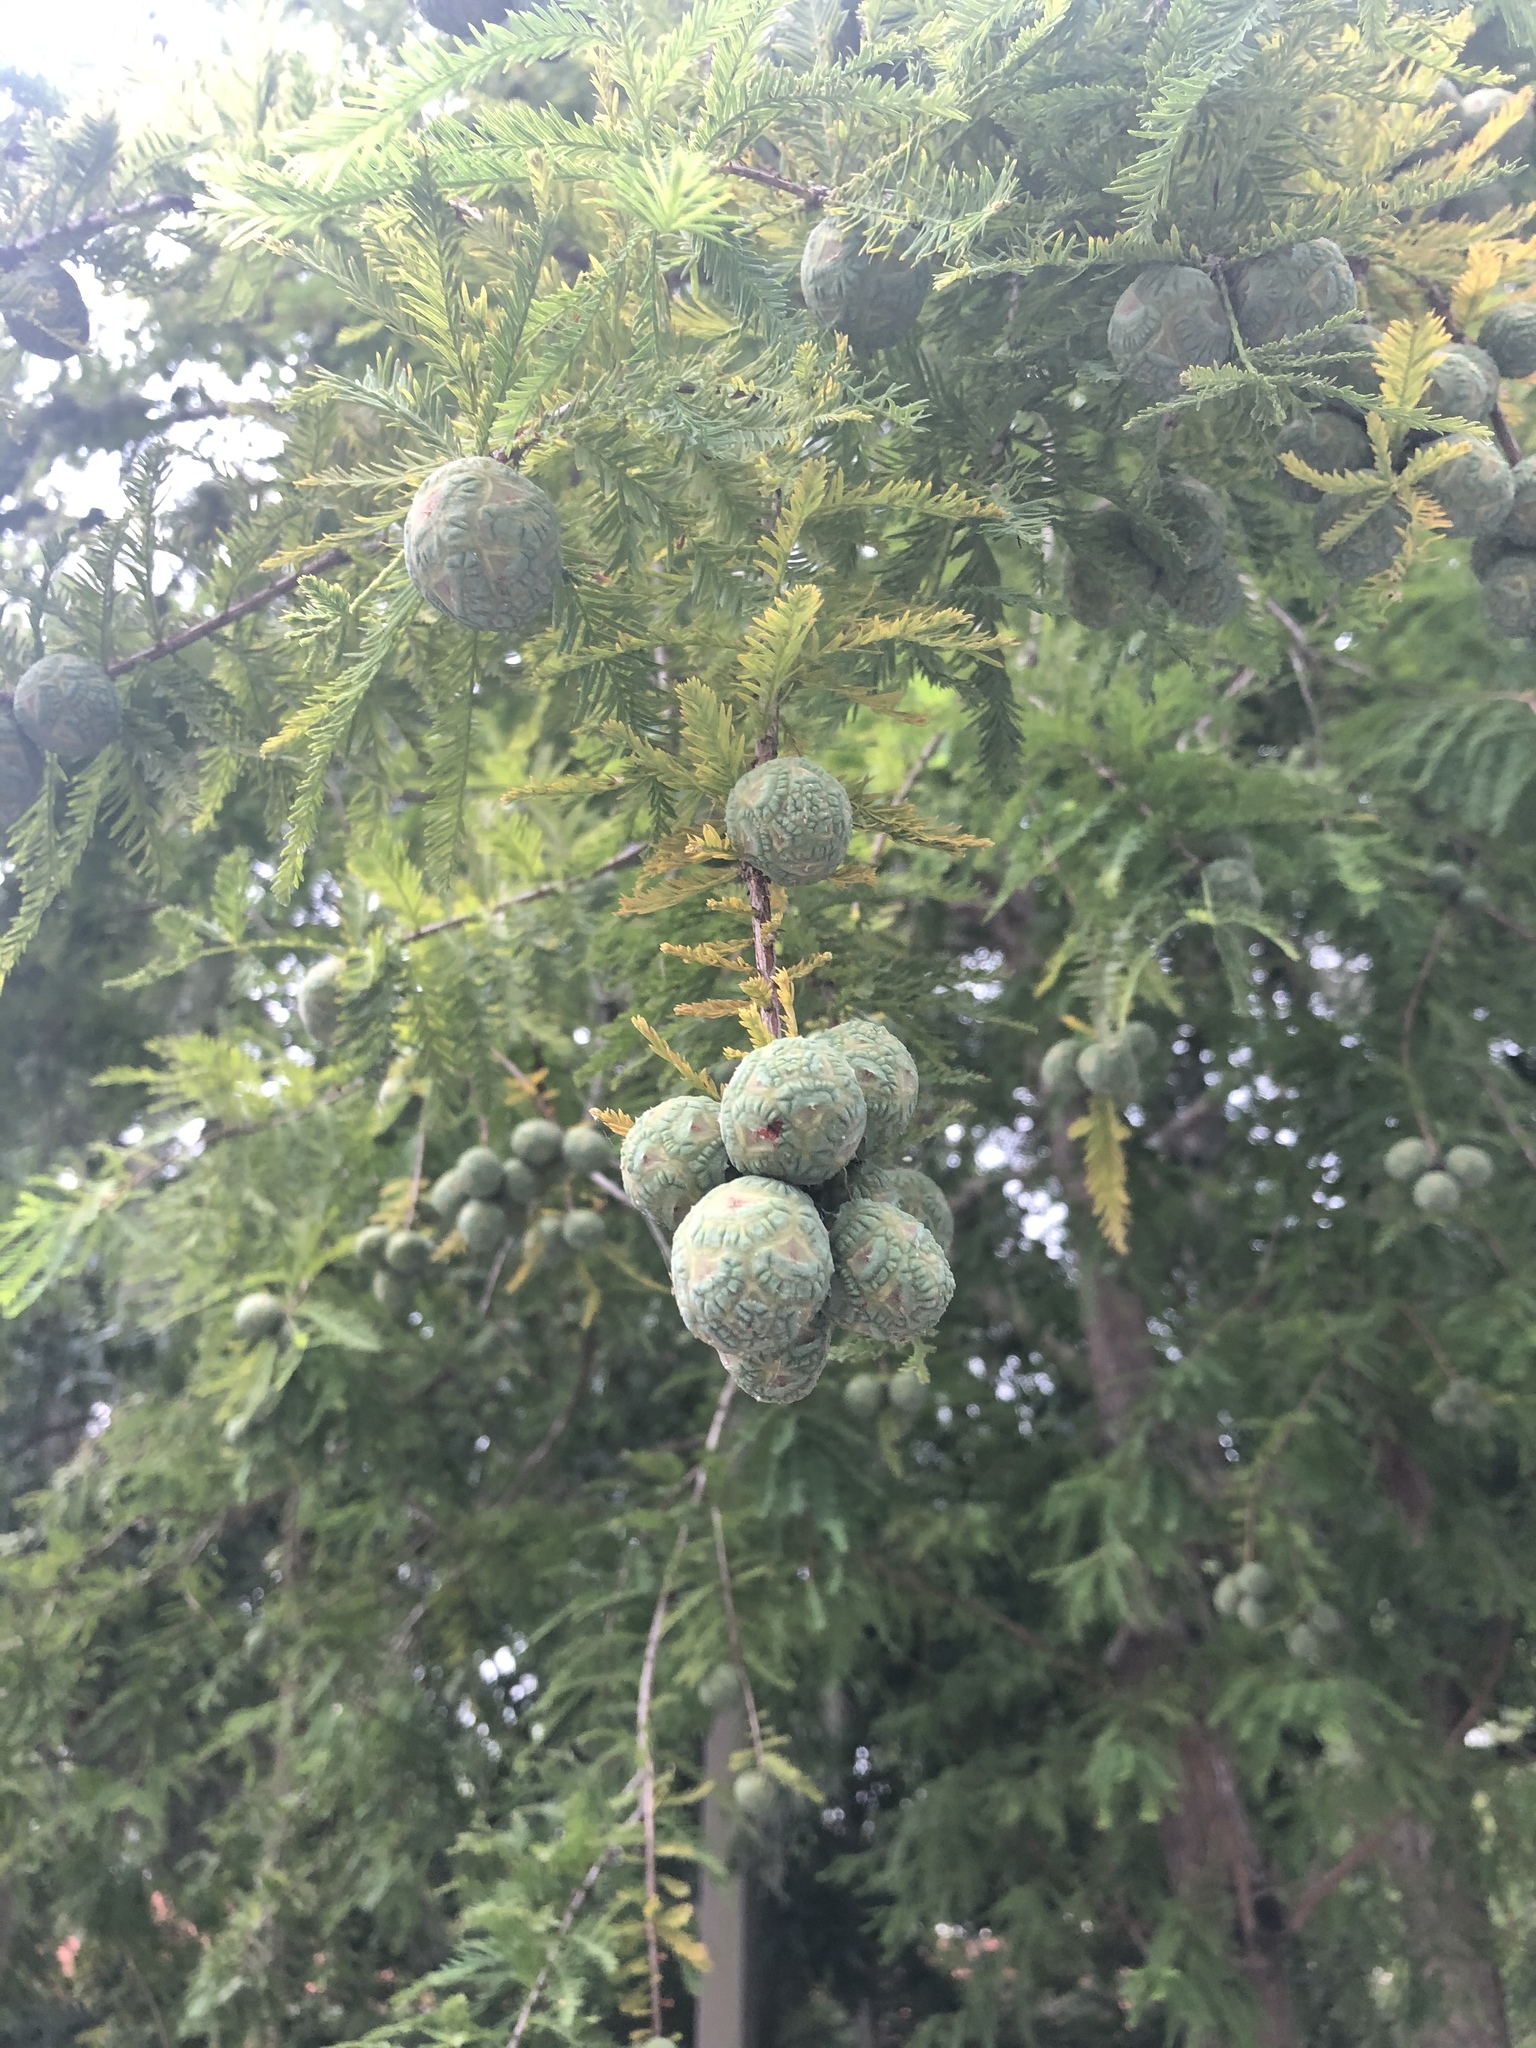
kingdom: Plantae
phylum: Tracheophyta
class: Pinopsida
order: Pinales
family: Cupressaceae
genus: Taxodium
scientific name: Taxodium distichum
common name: Bald cypress
